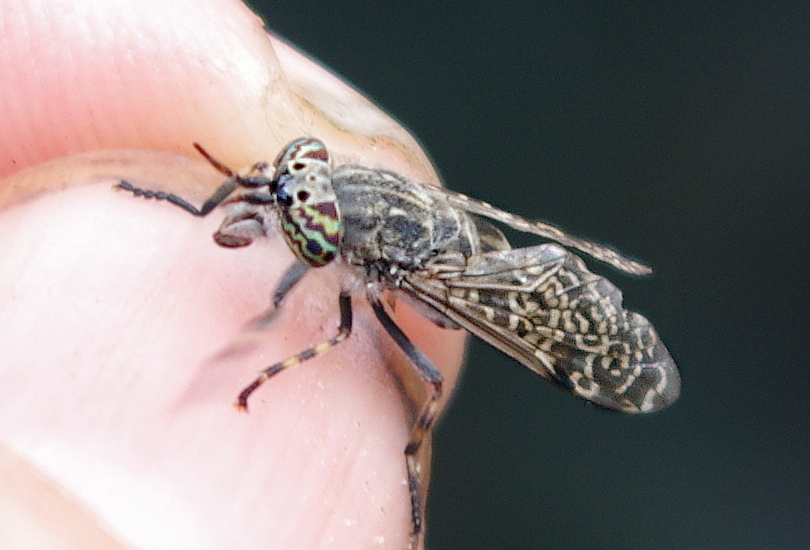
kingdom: Animalia
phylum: Arthropoda
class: Insecta
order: Diptera
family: Tabanidae
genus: Haematopota
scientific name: Haematopota pluvialis
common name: Common horse fly
